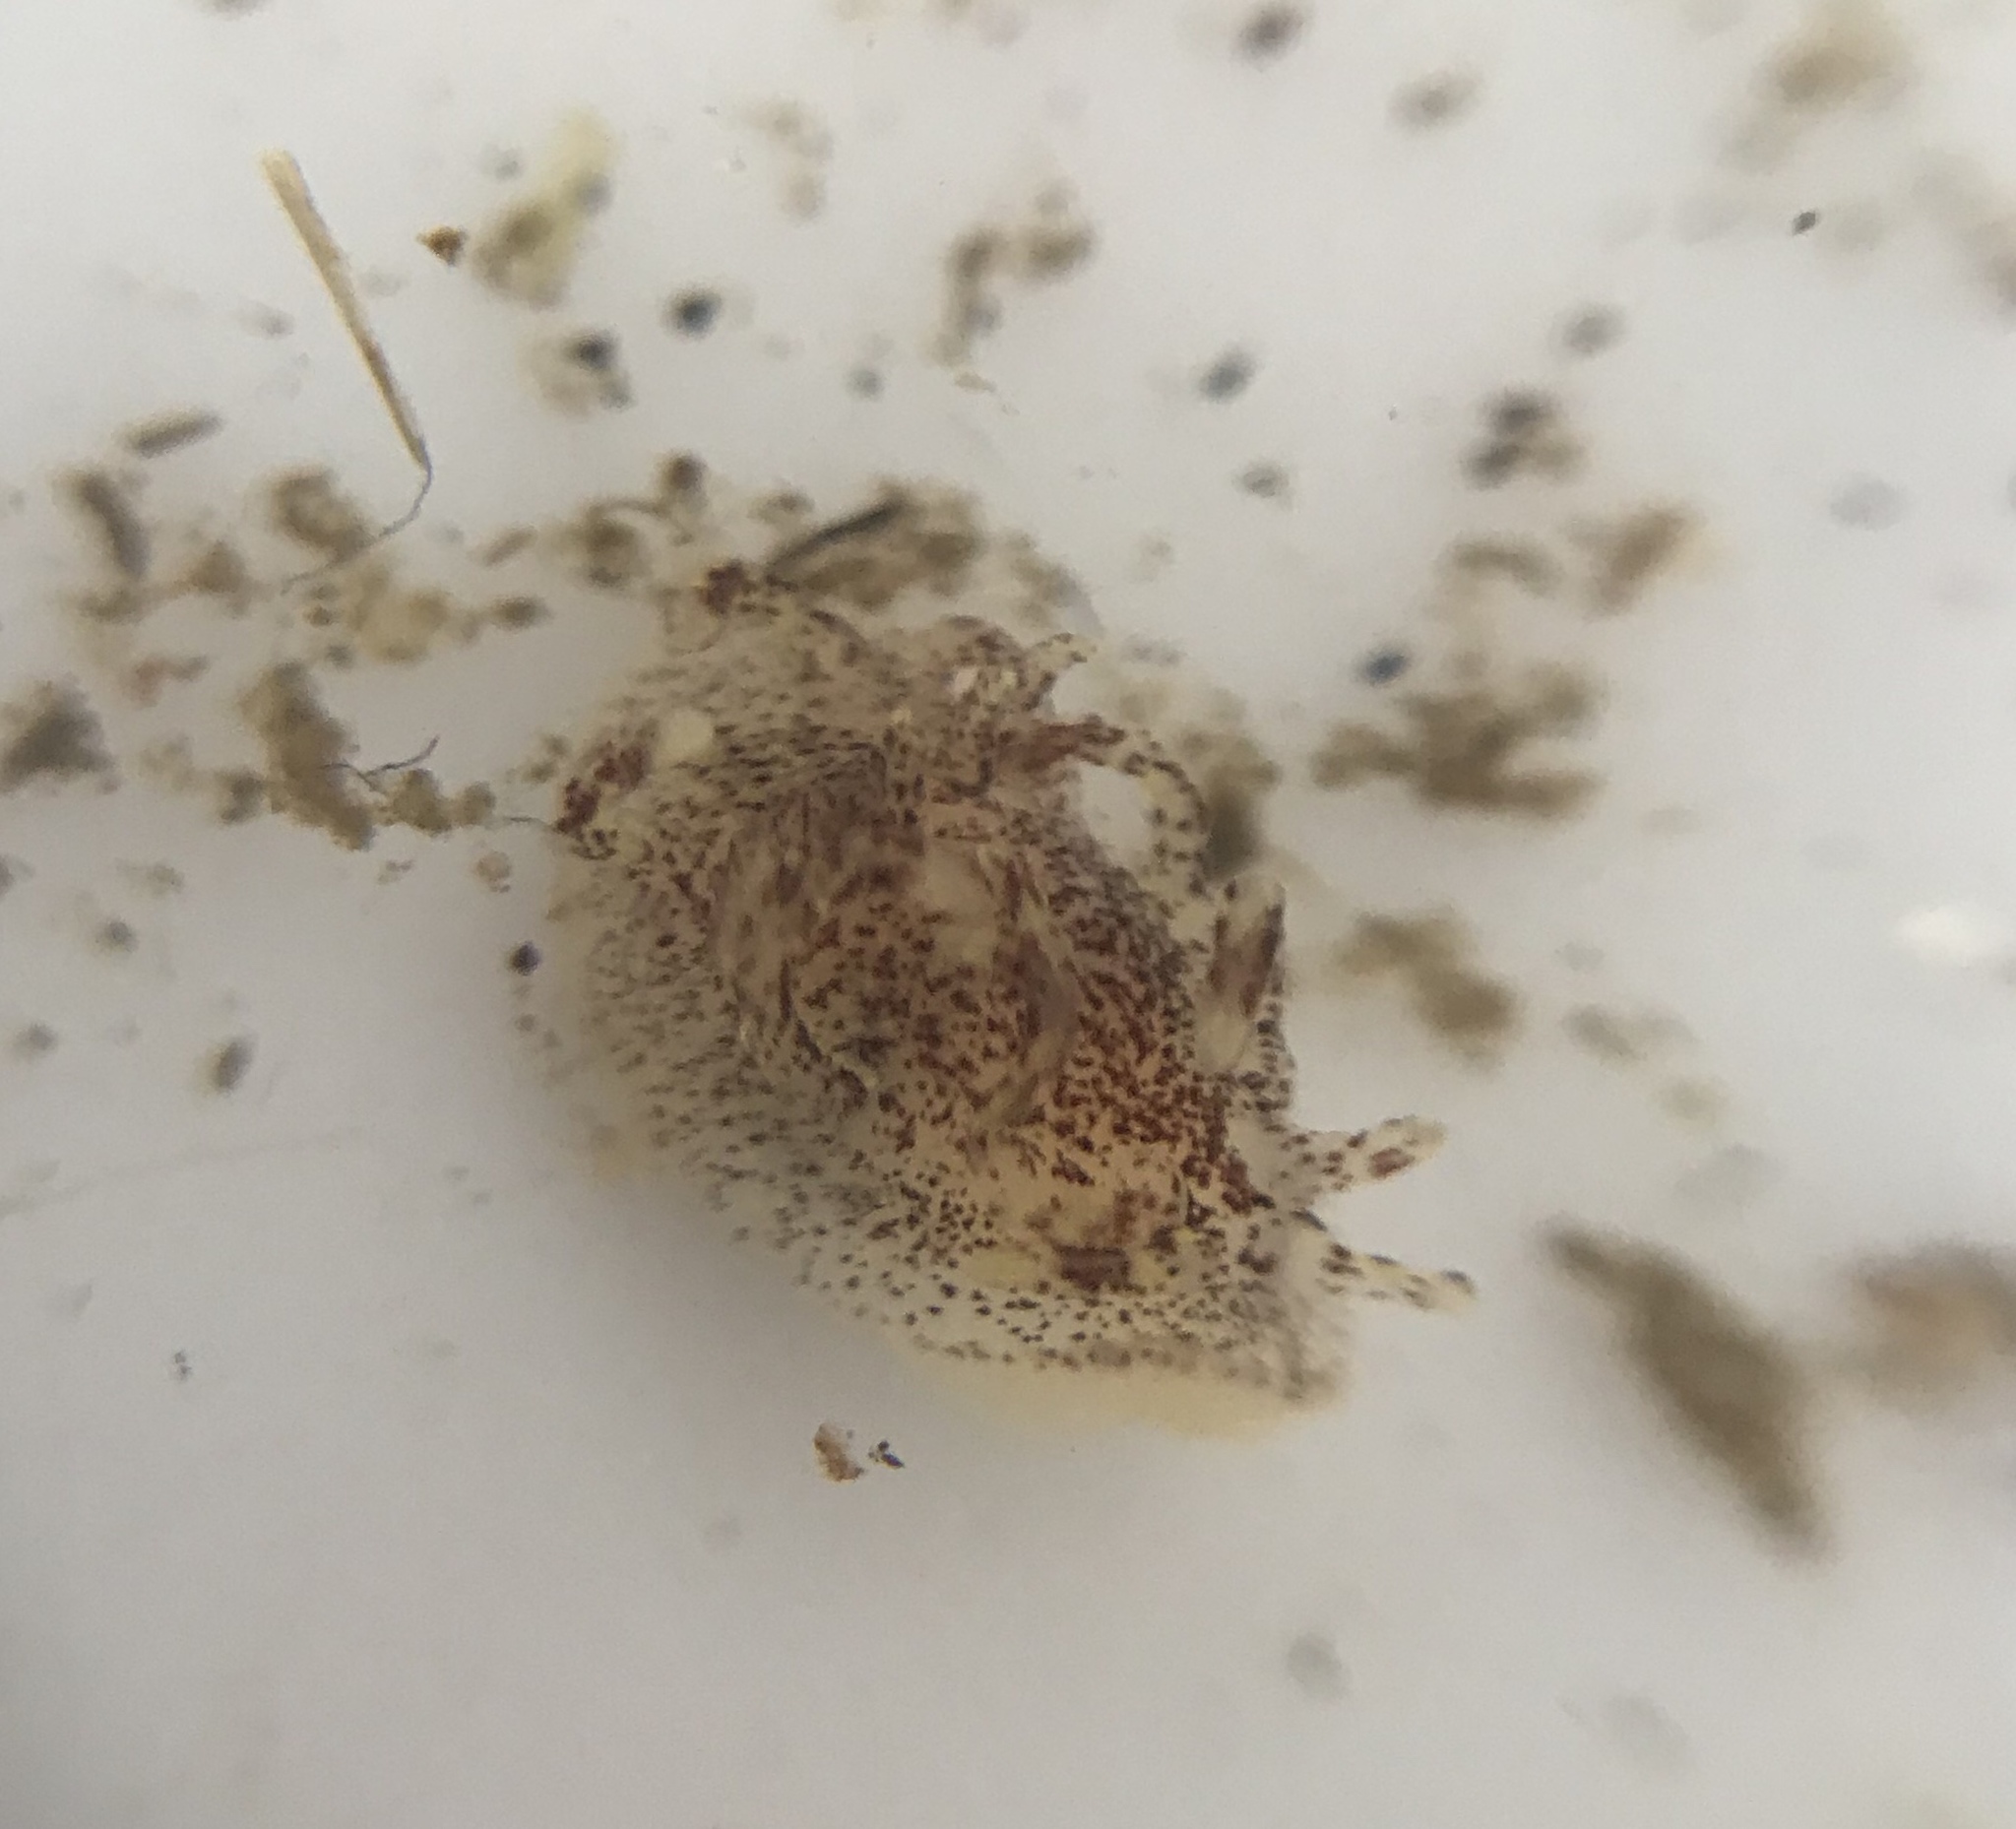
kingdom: Animalia
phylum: Mollusca
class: Gastropoda
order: Nudibranchia
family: Goniodorididae
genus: Okenia
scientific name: Okenia
